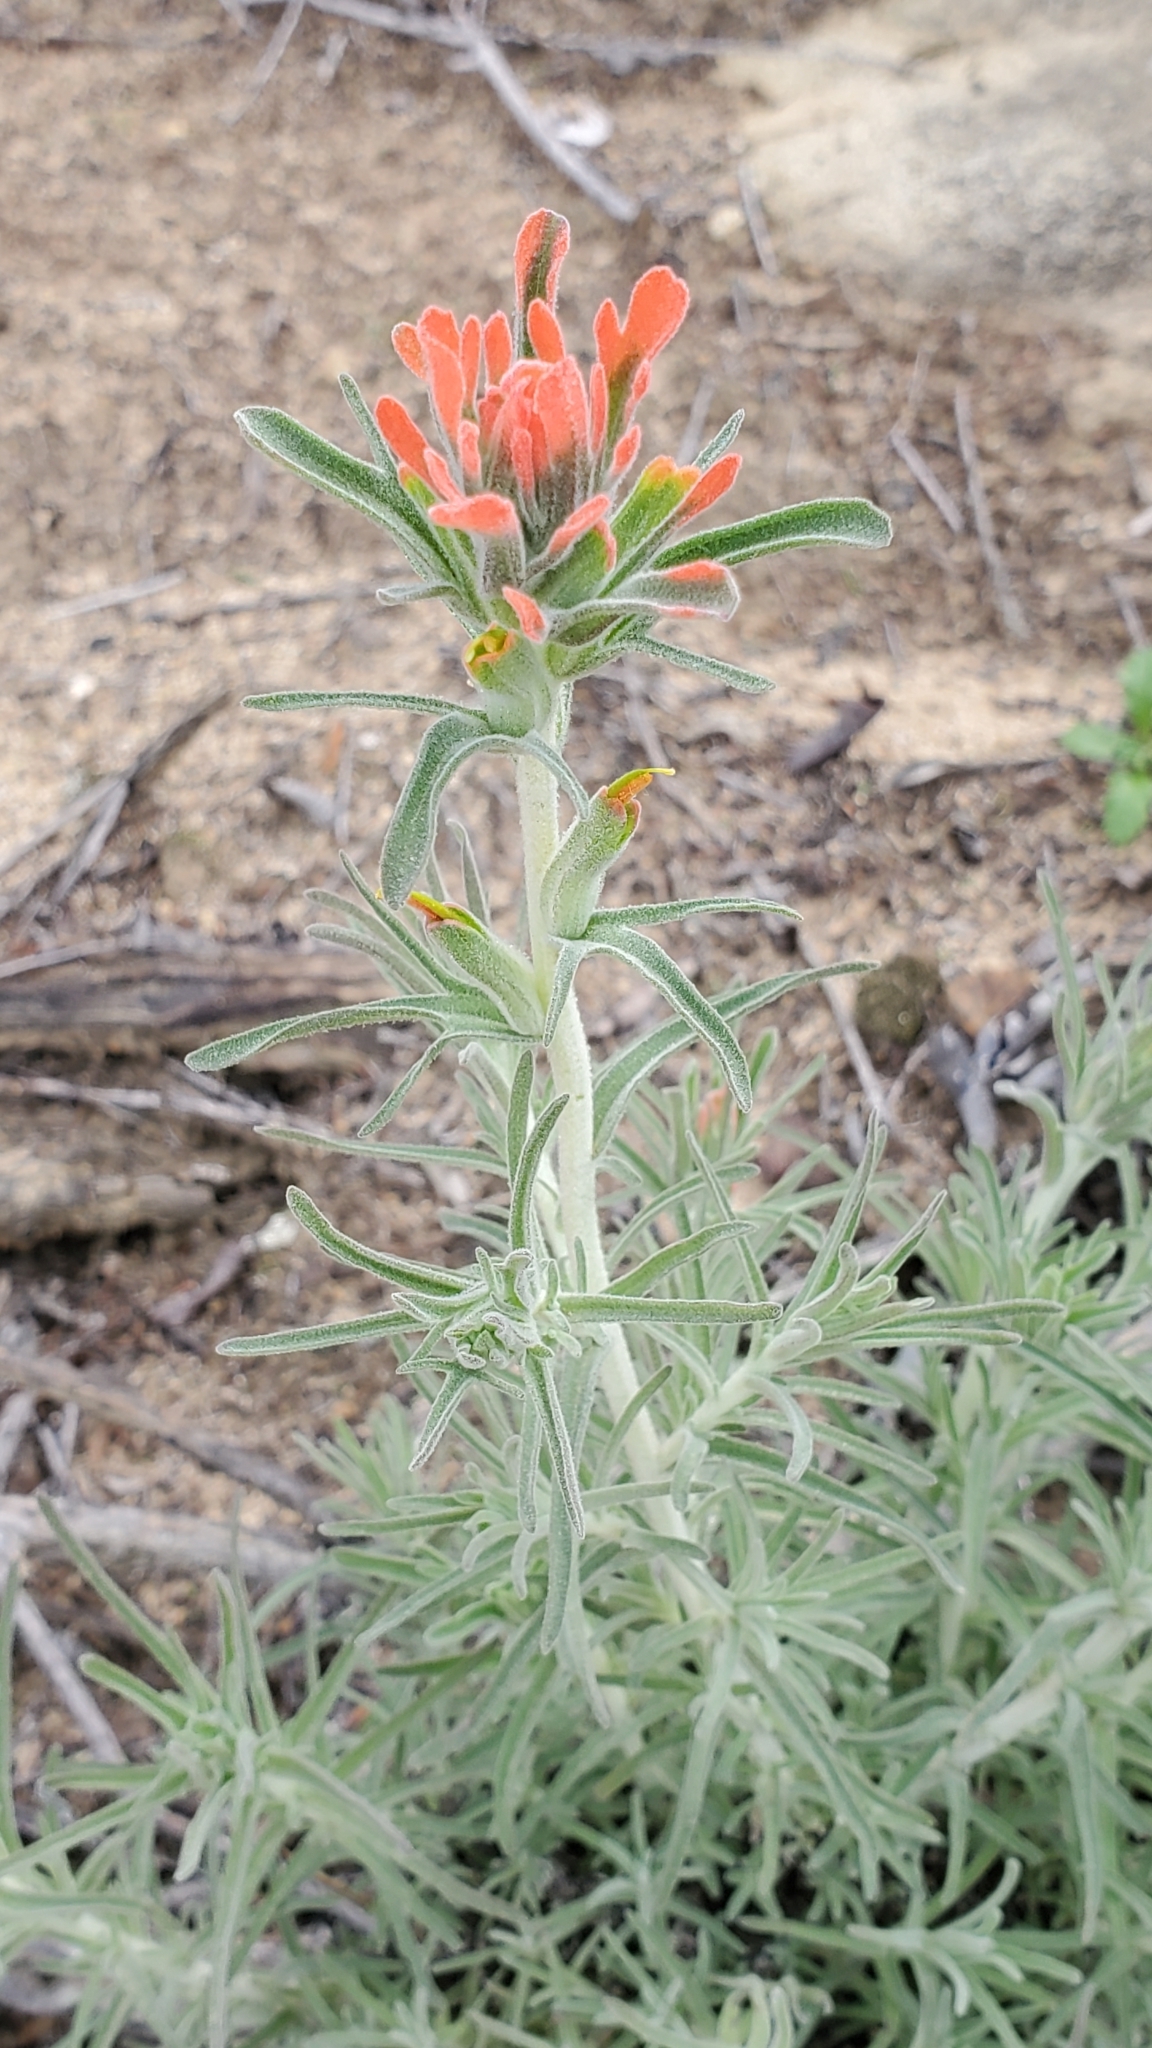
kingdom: Plantae
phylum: Tracheophyta
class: Magnoliopsida
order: Lamiales
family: Orobanchaceae
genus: Castilleja
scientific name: Castilleja foliolosa
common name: Woolly indian paintbrush
